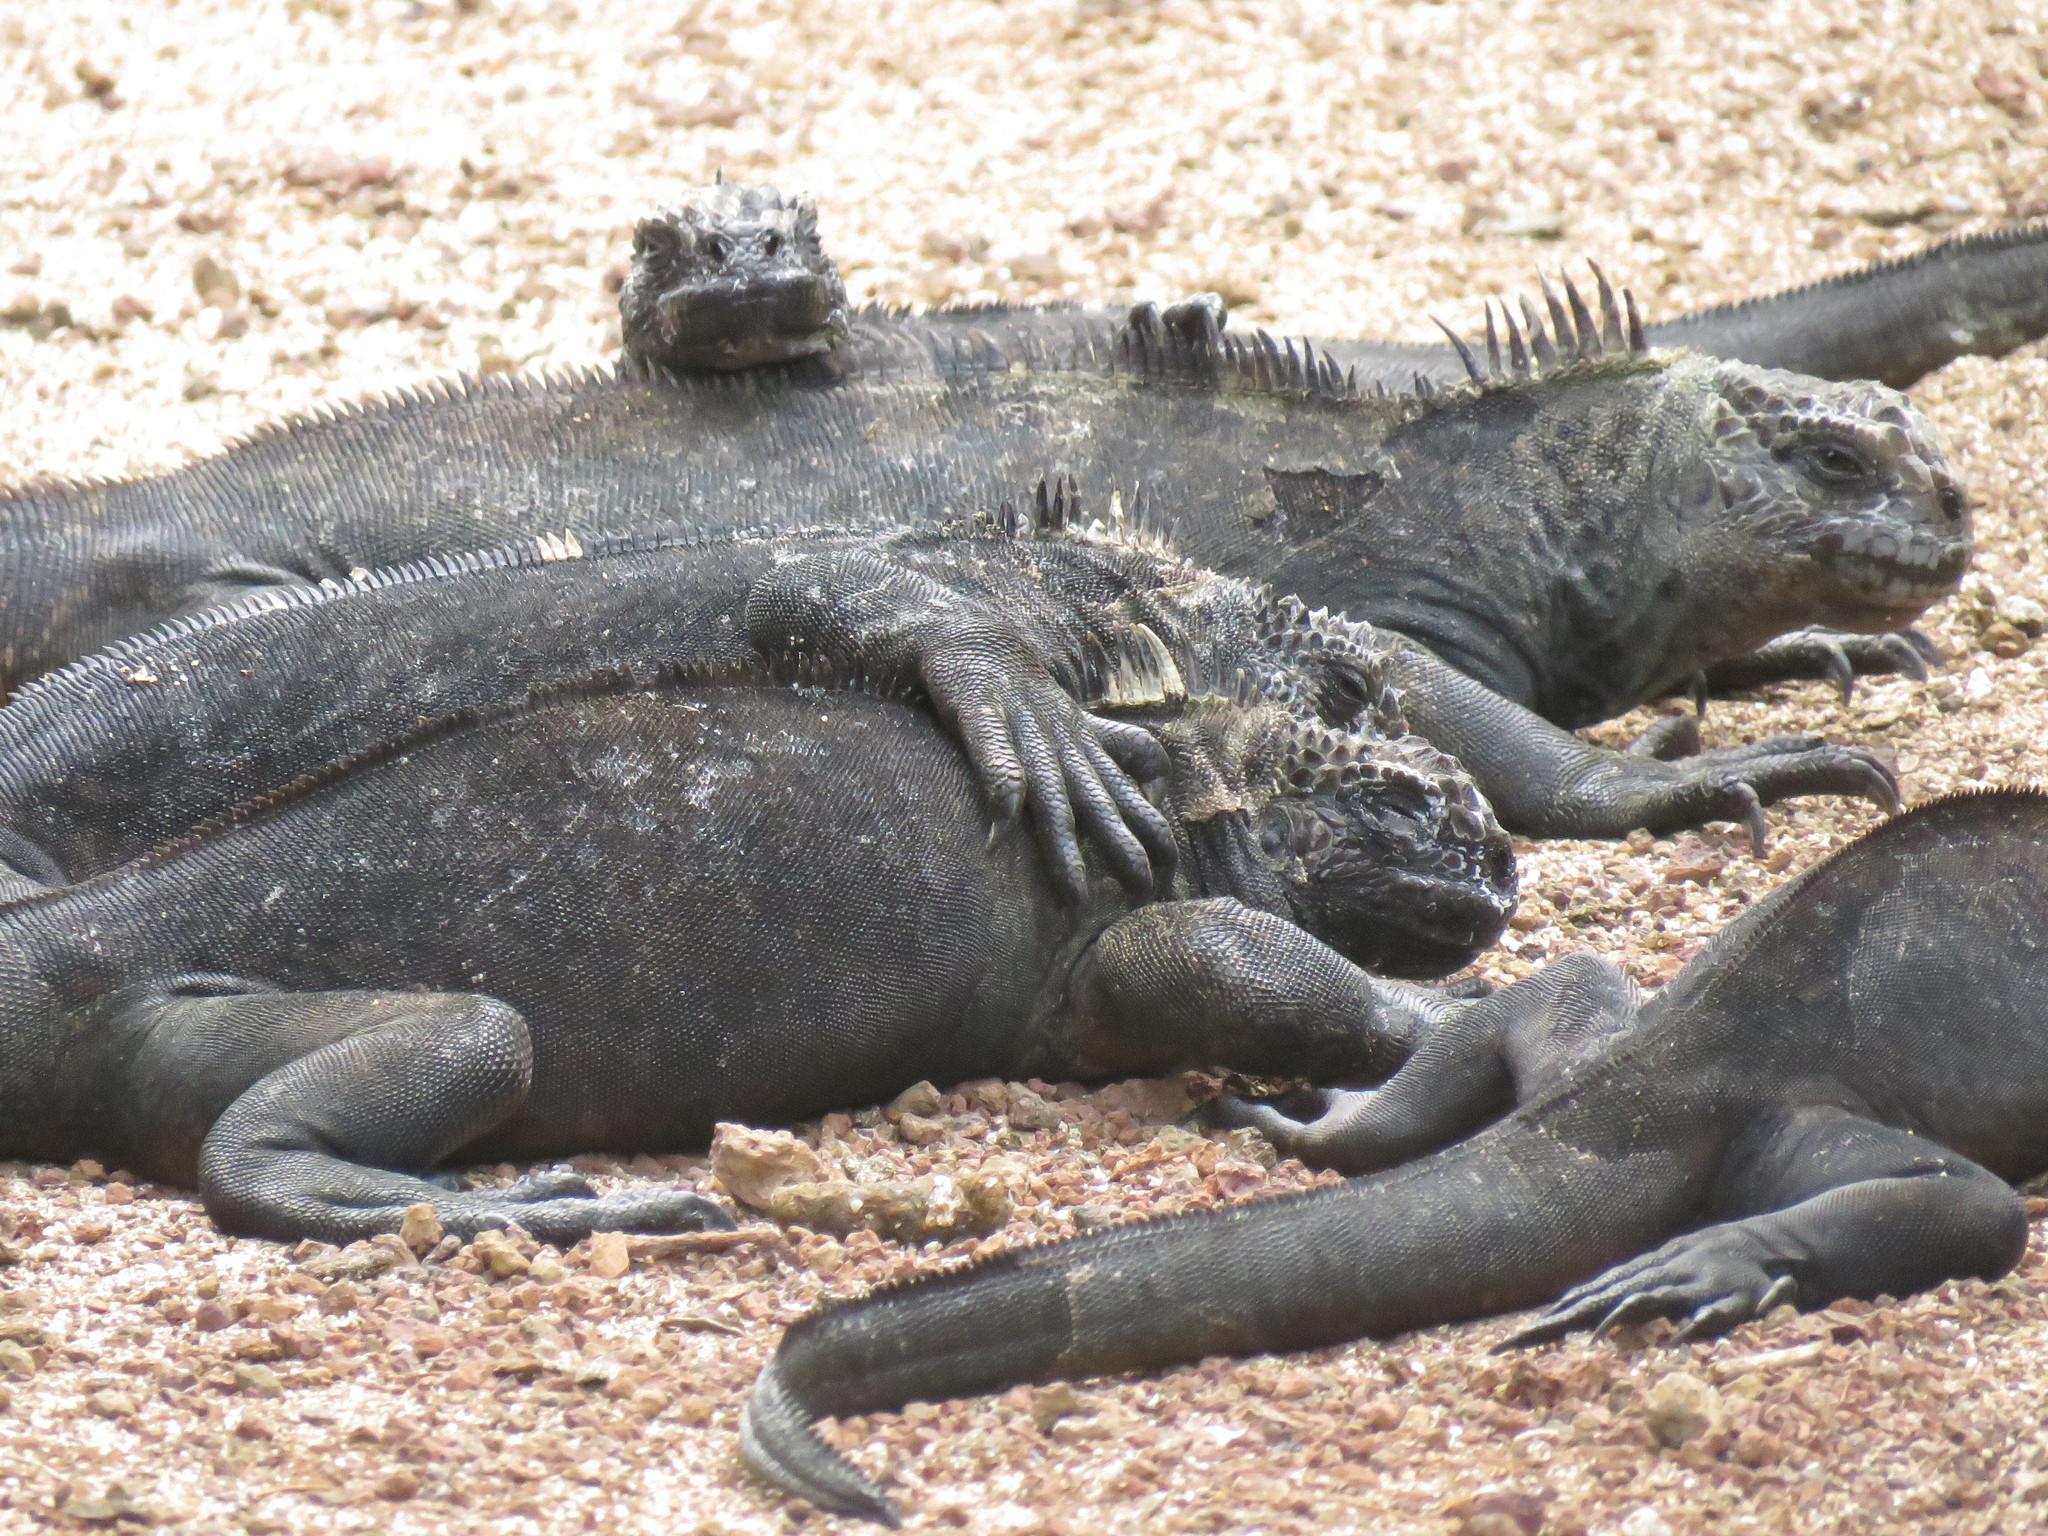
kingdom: Animalia
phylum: Chordata
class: Squamata
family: Iguanidae
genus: Amblyrhynchus
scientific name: Amblyrhynchus cristatus
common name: Marine iguana
